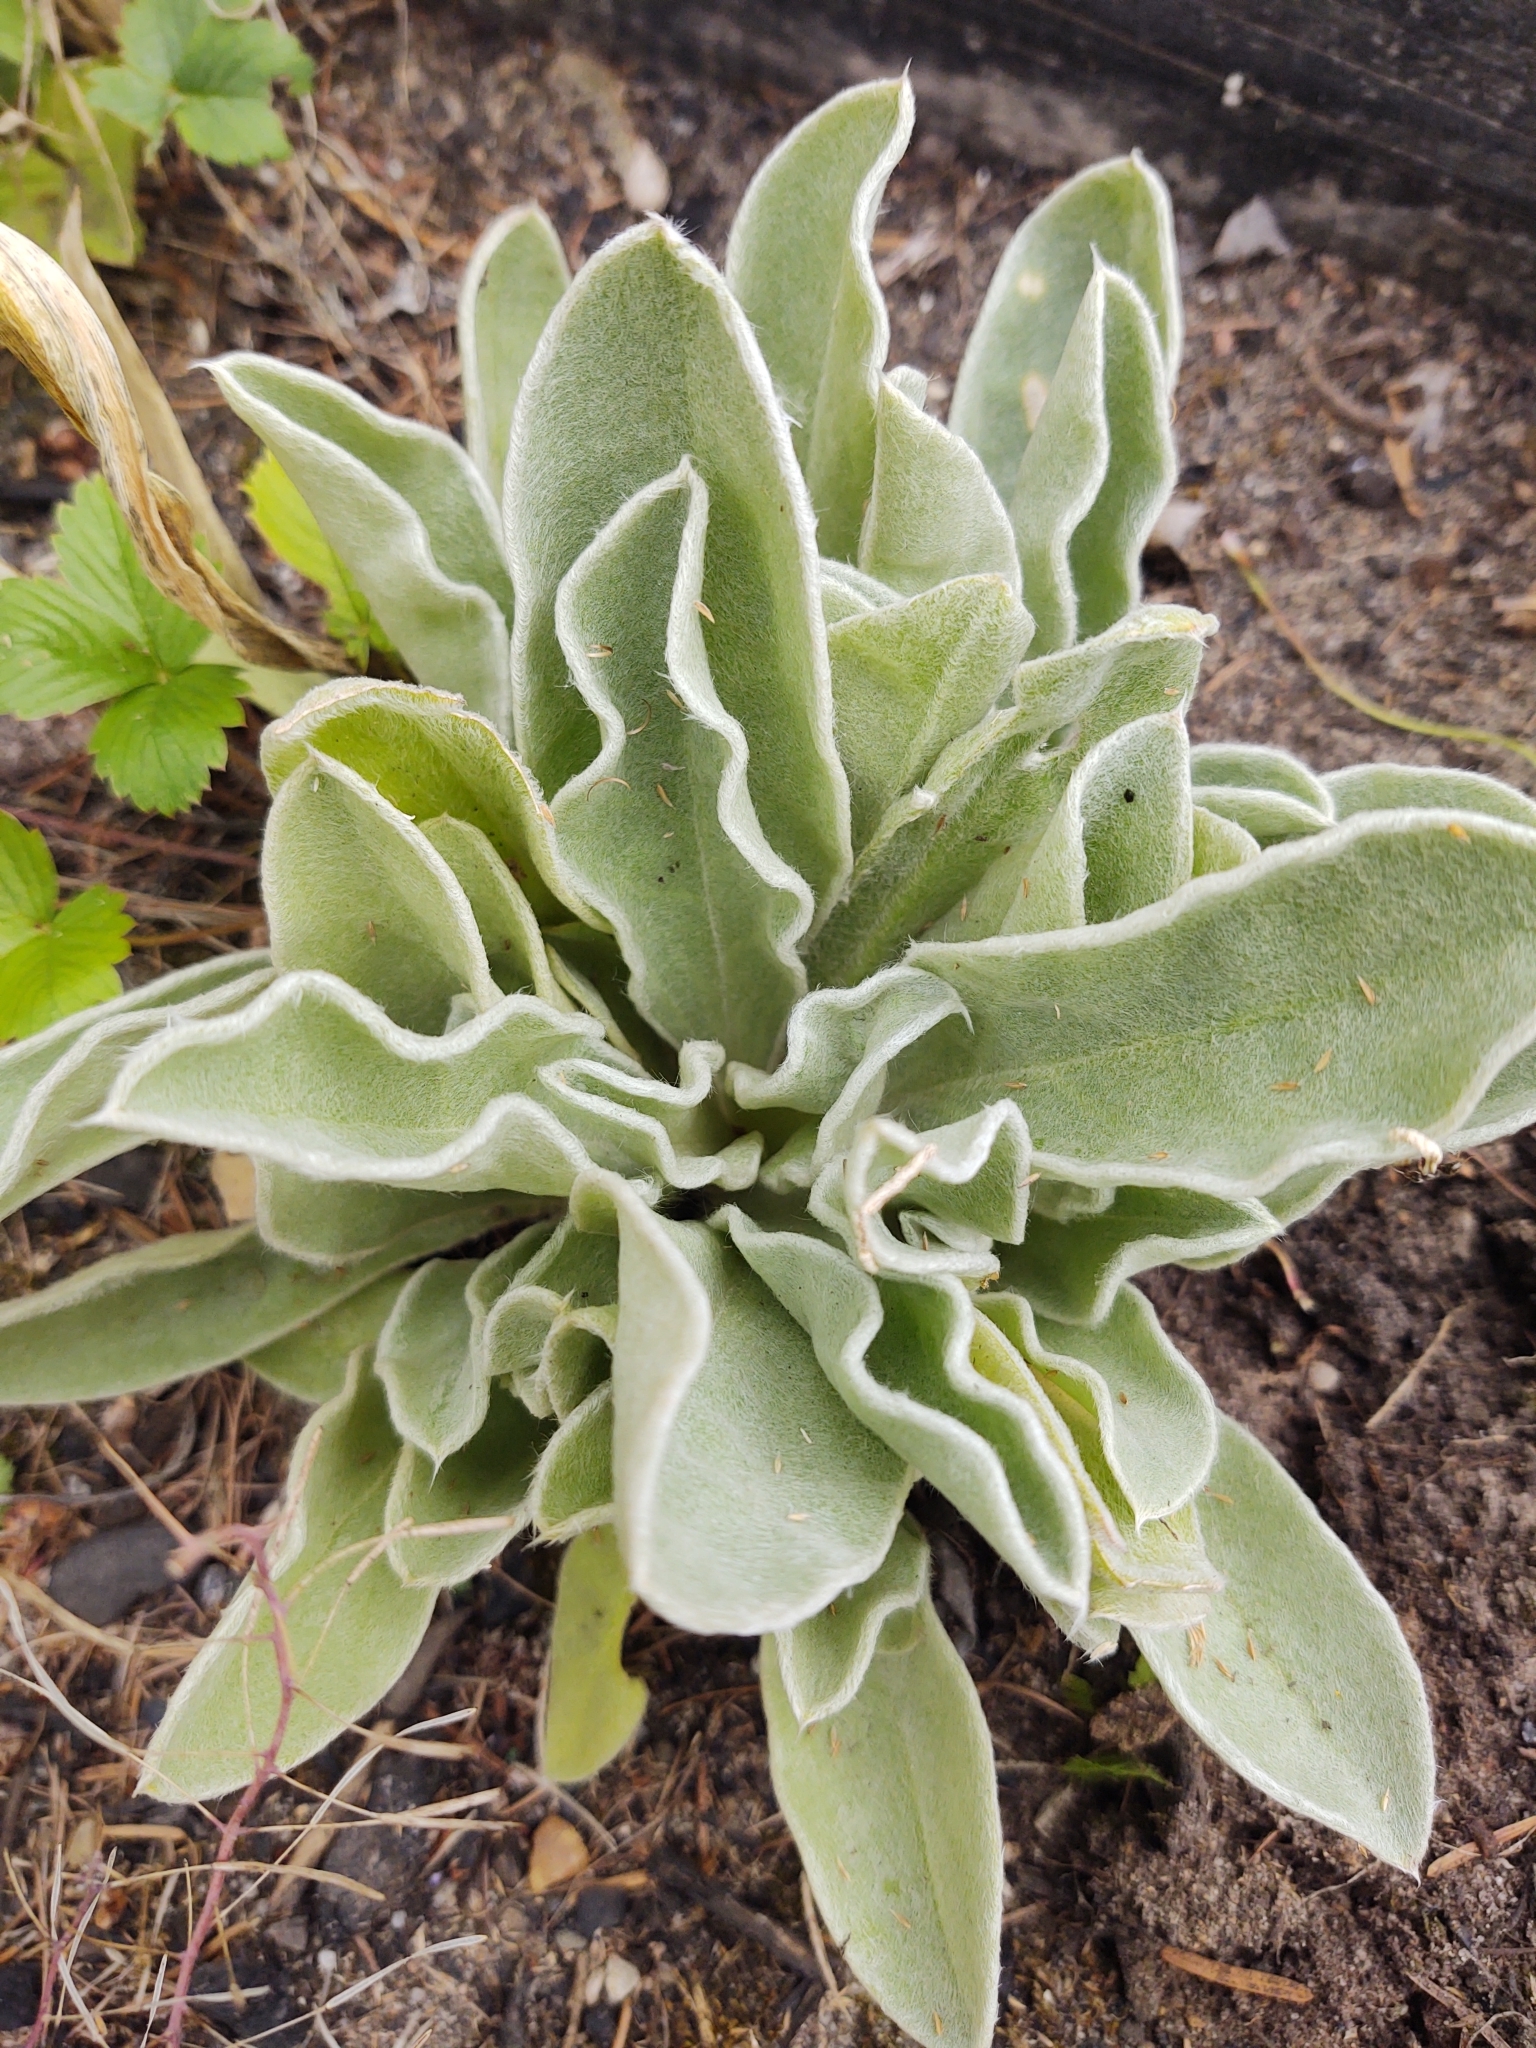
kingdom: Plantae
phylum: Tracheophyta
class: Magnoliopsida
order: Caryophyllales
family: Caryophyllaceae
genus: Silene
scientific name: Silene coronaria
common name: Rose campion
